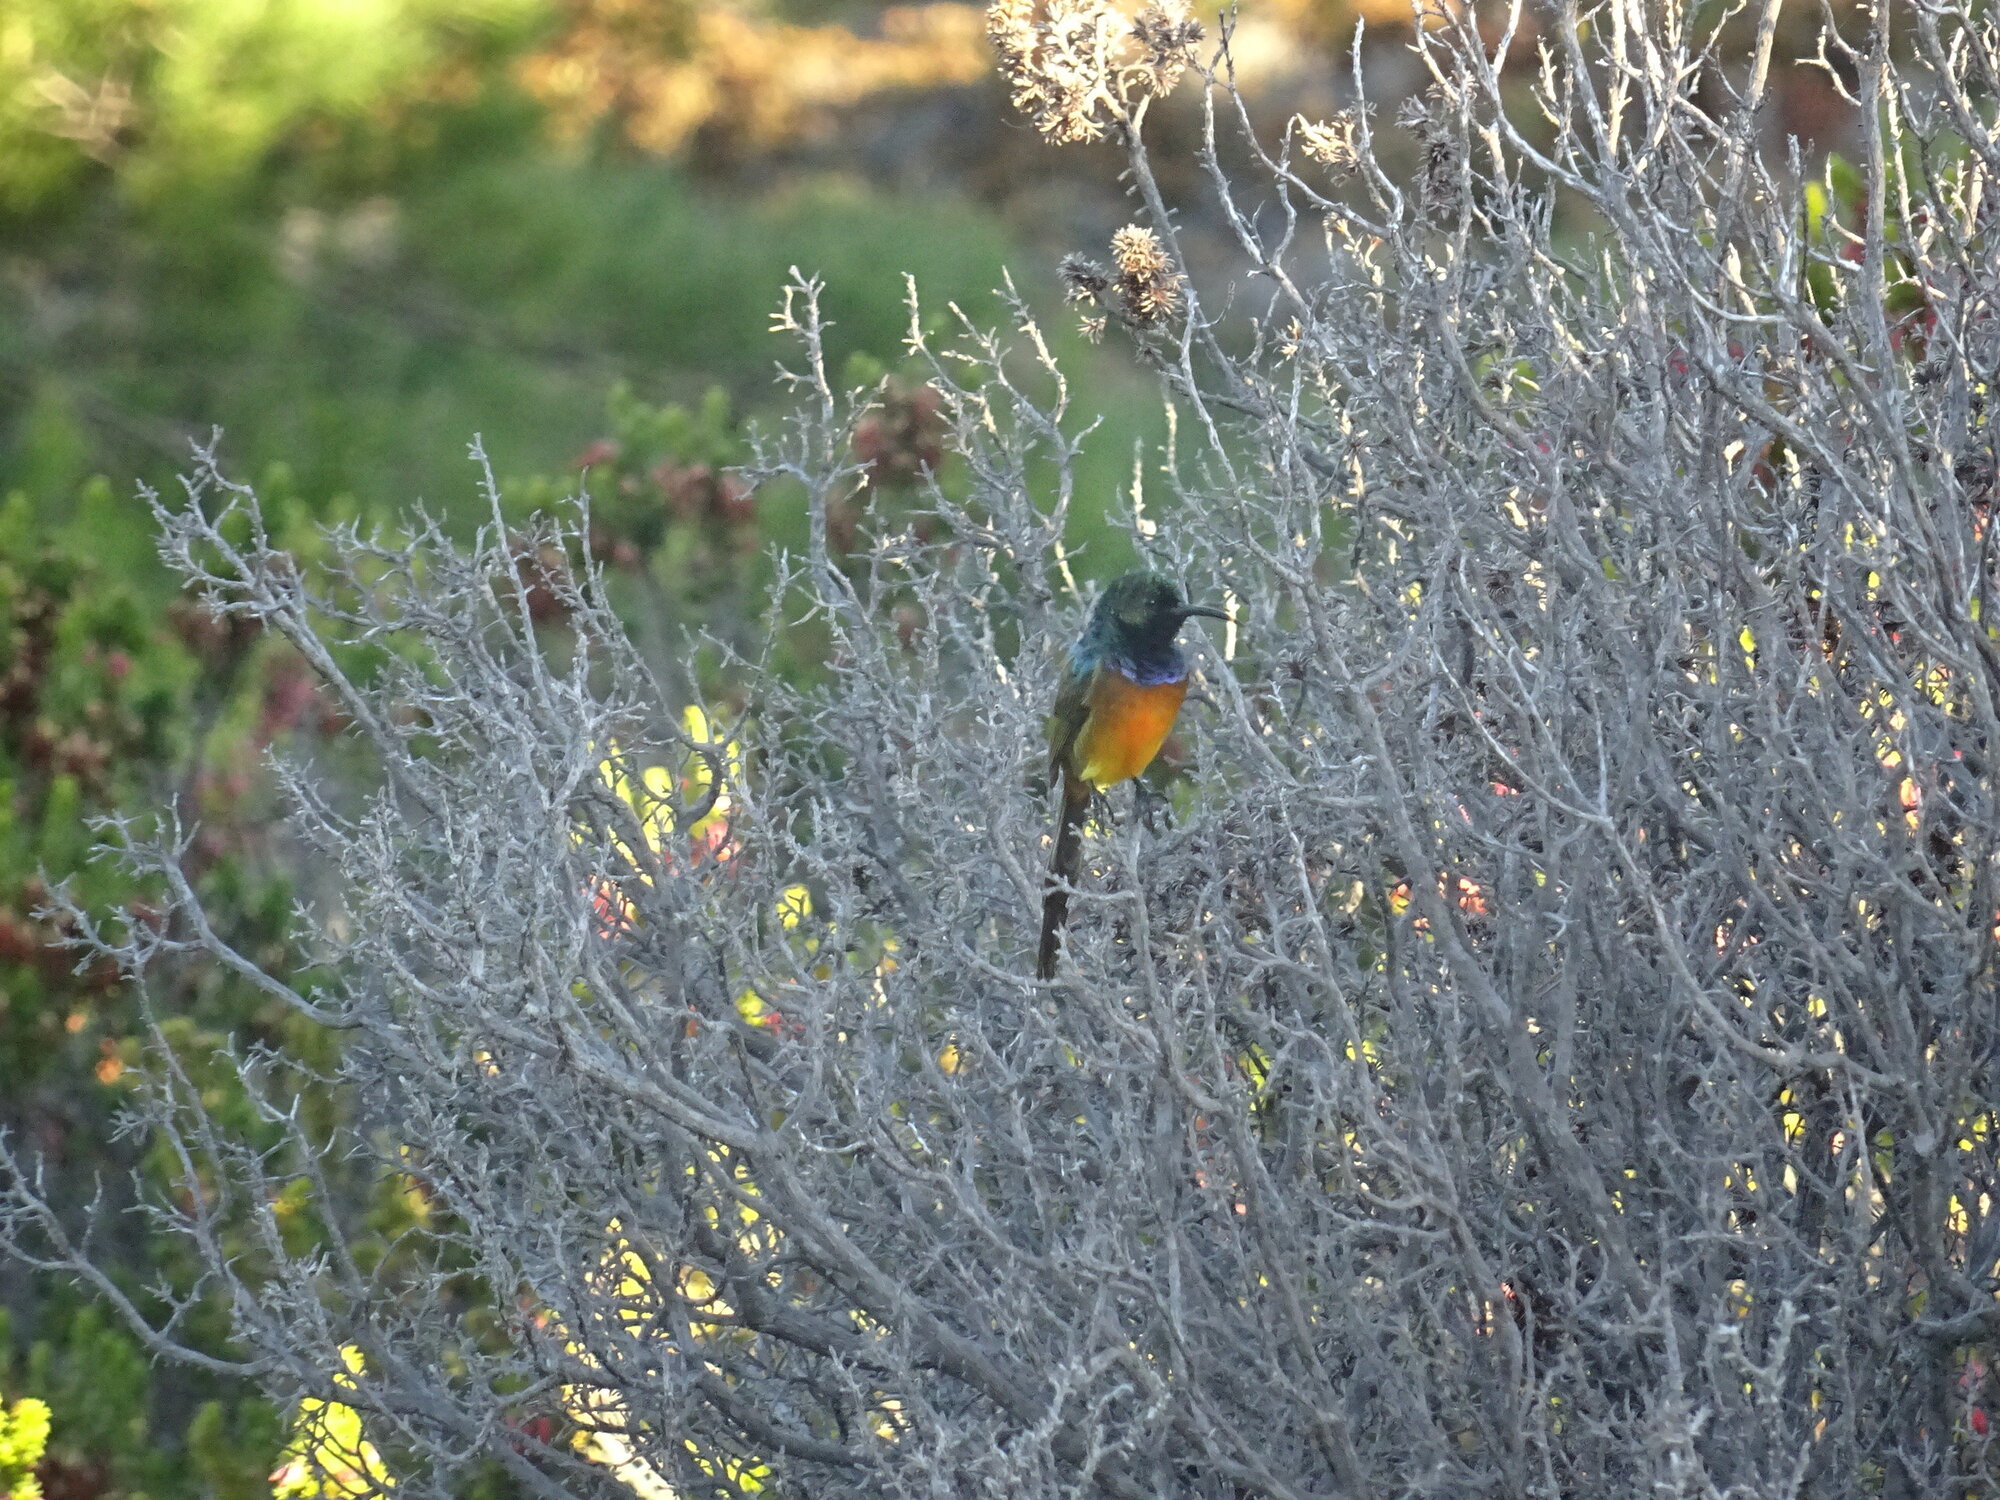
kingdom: Animalia
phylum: Chordata
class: Aves
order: Passeriformes
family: Nectariniidae
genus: Anthobaphes
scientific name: Anthobaphes violacea
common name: Orange-breasted sunbird
